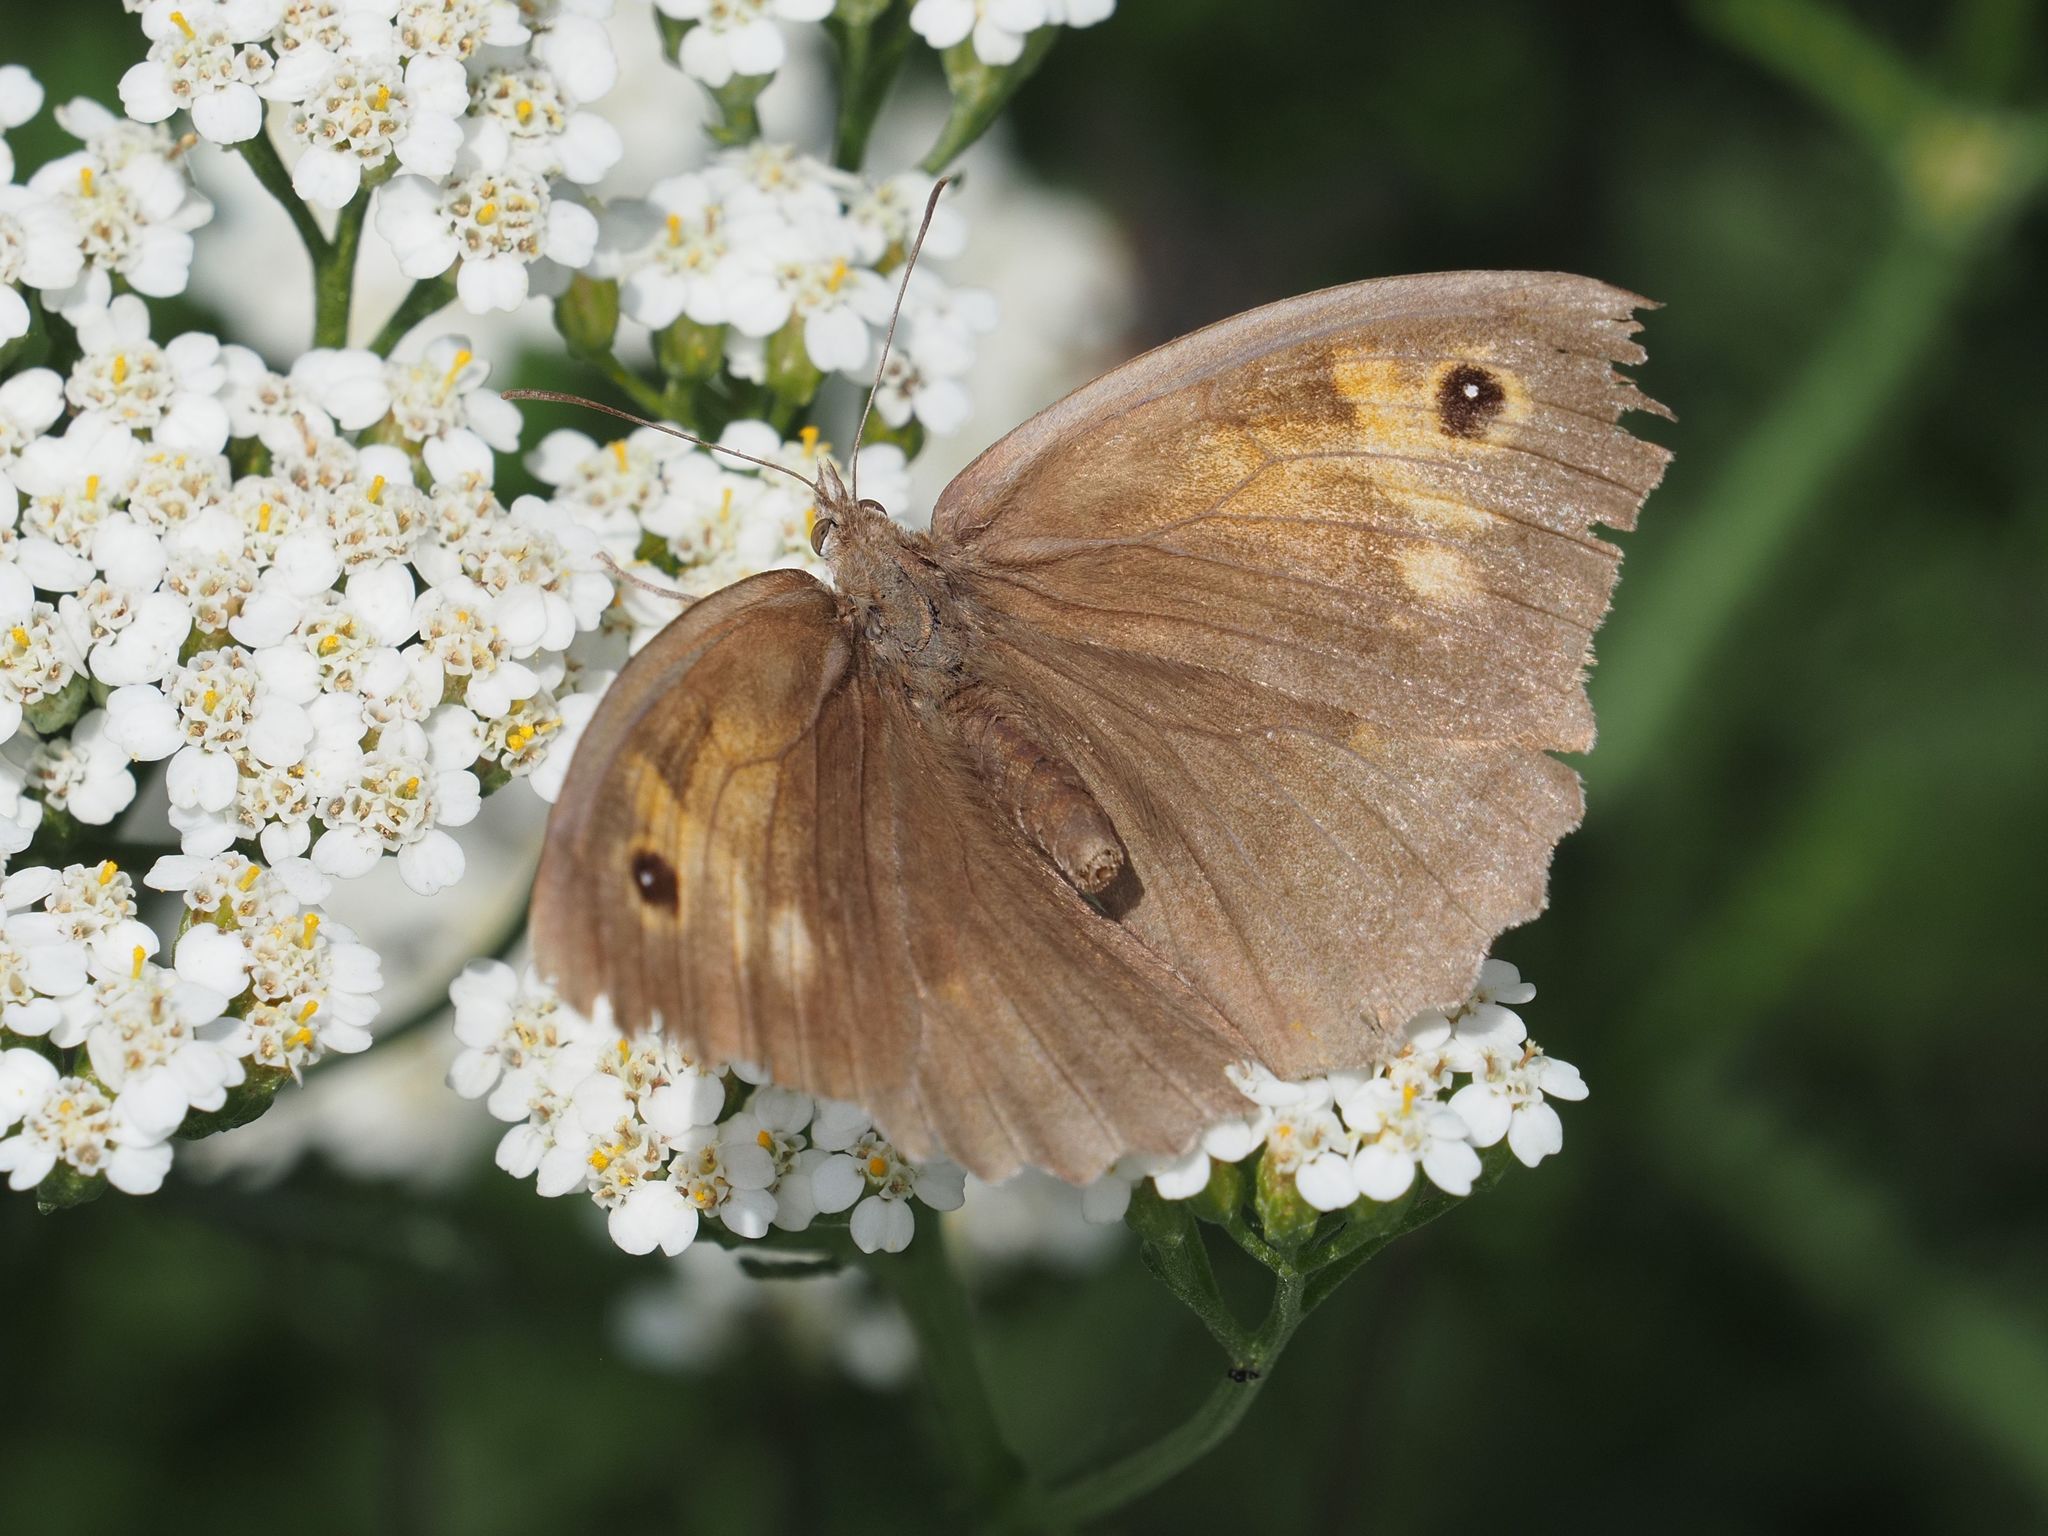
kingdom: Animalia
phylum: Arthropoda
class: Insecta
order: Lepidoptera
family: Nymphalidae
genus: Maniola
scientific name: Maniola jurtina
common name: Meadow brown
